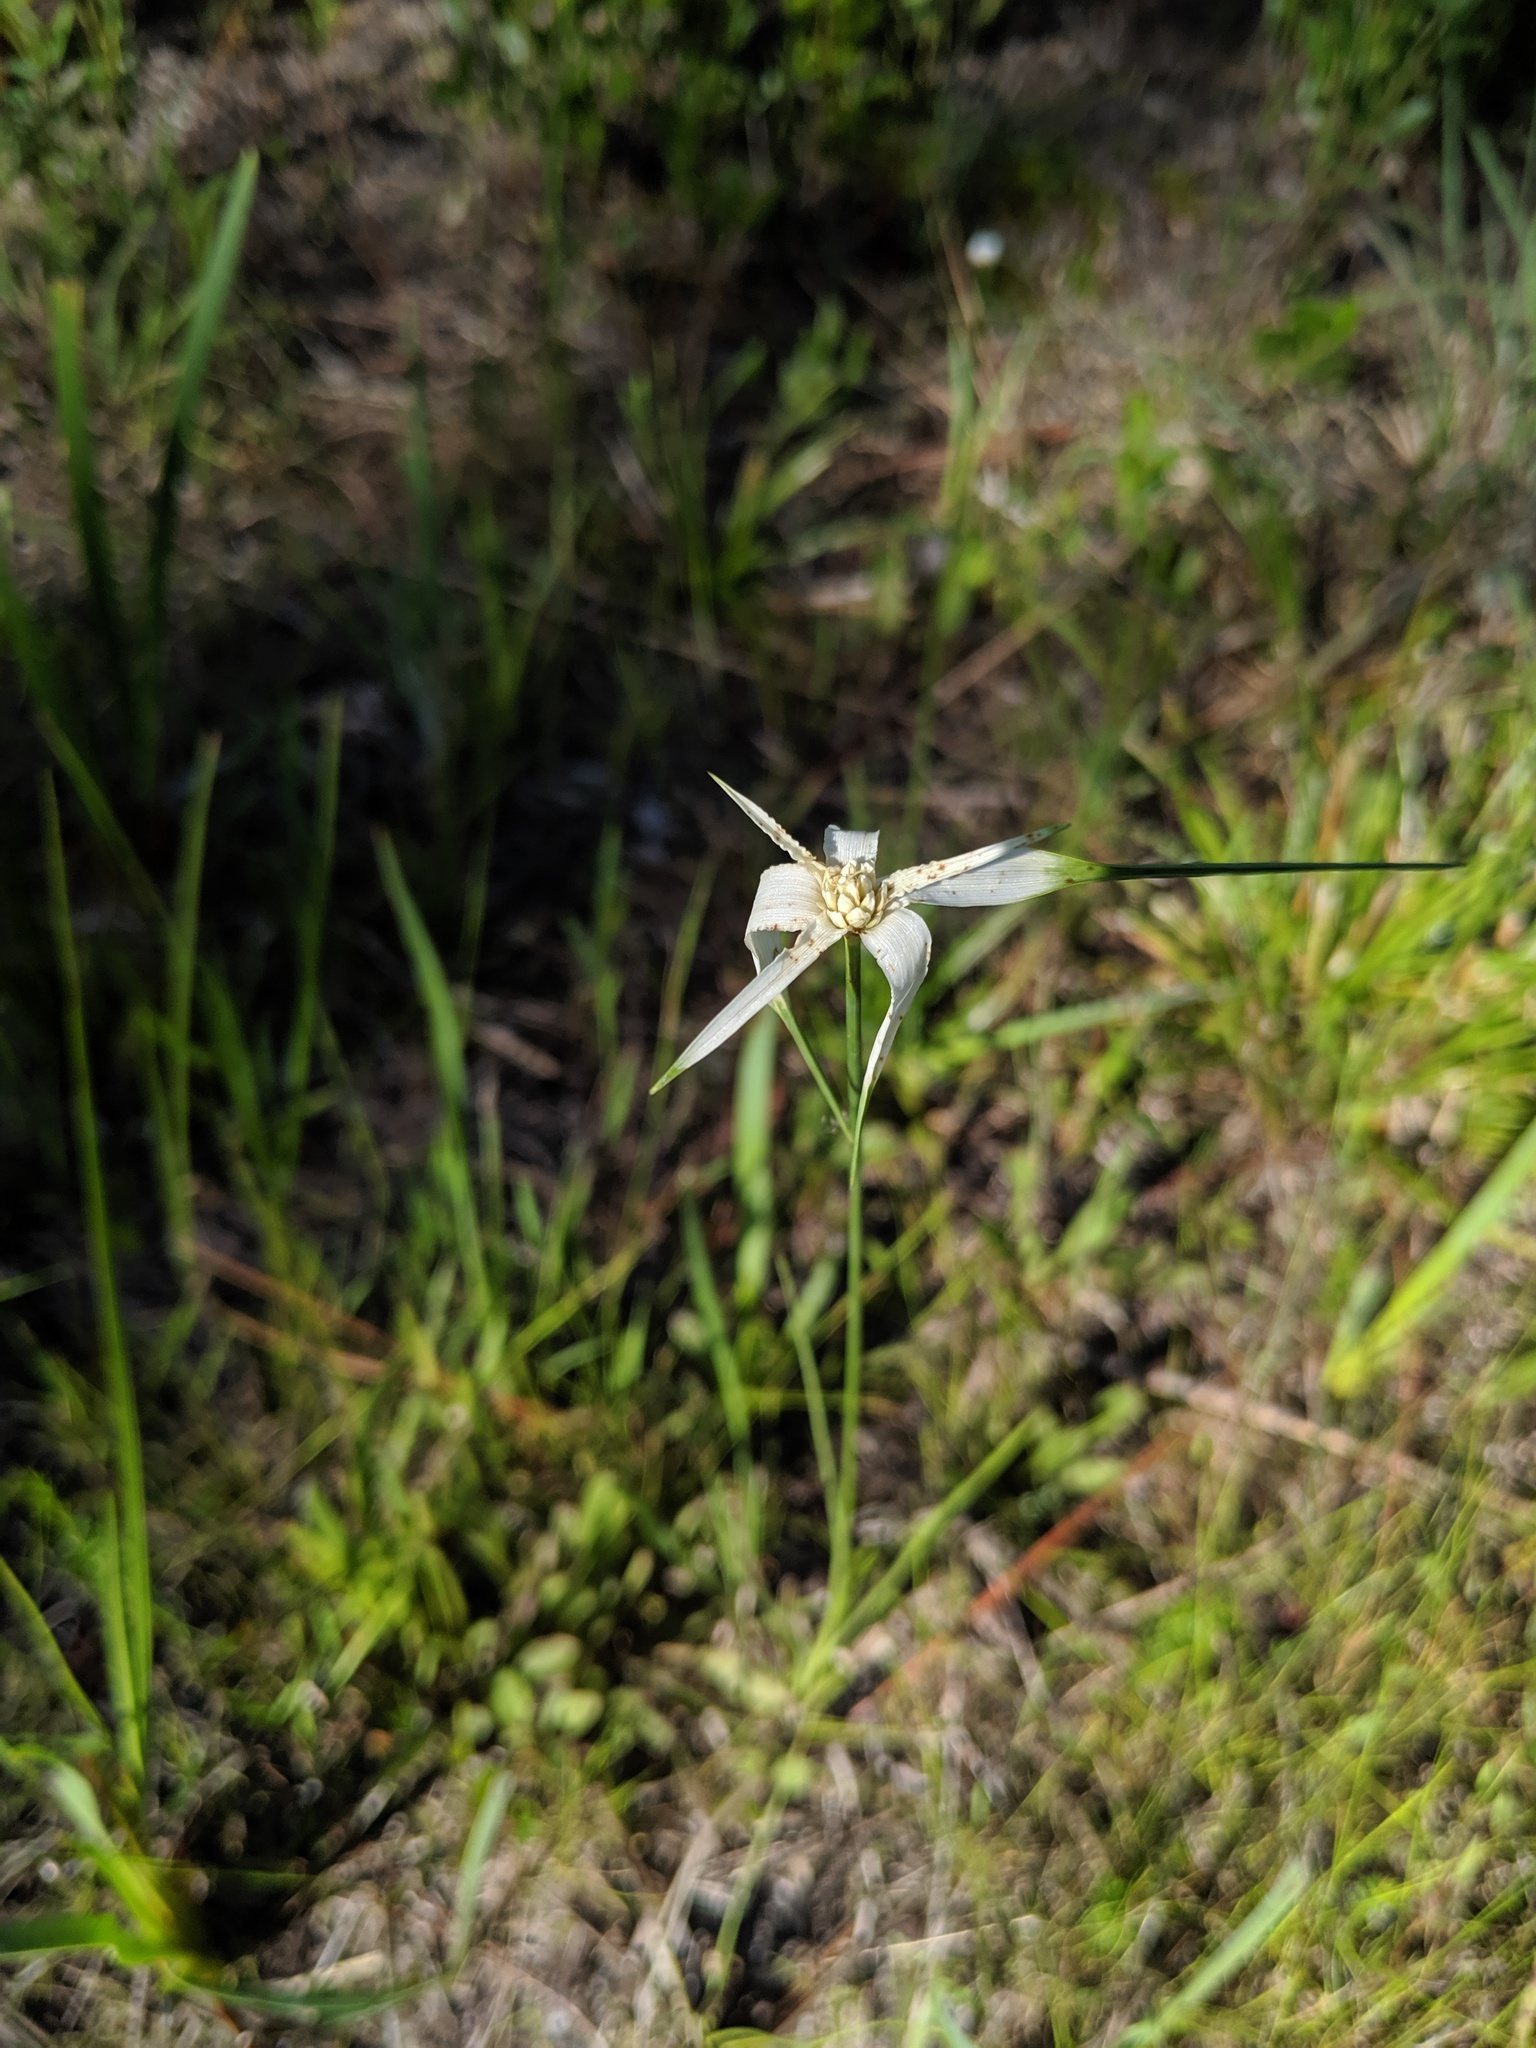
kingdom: Plantae
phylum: Tracheophyta
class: Liliopsida
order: Poales
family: Cyperaceae
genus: Rhynchospora
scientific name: Rhynchospora colorata
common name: Star sedge
